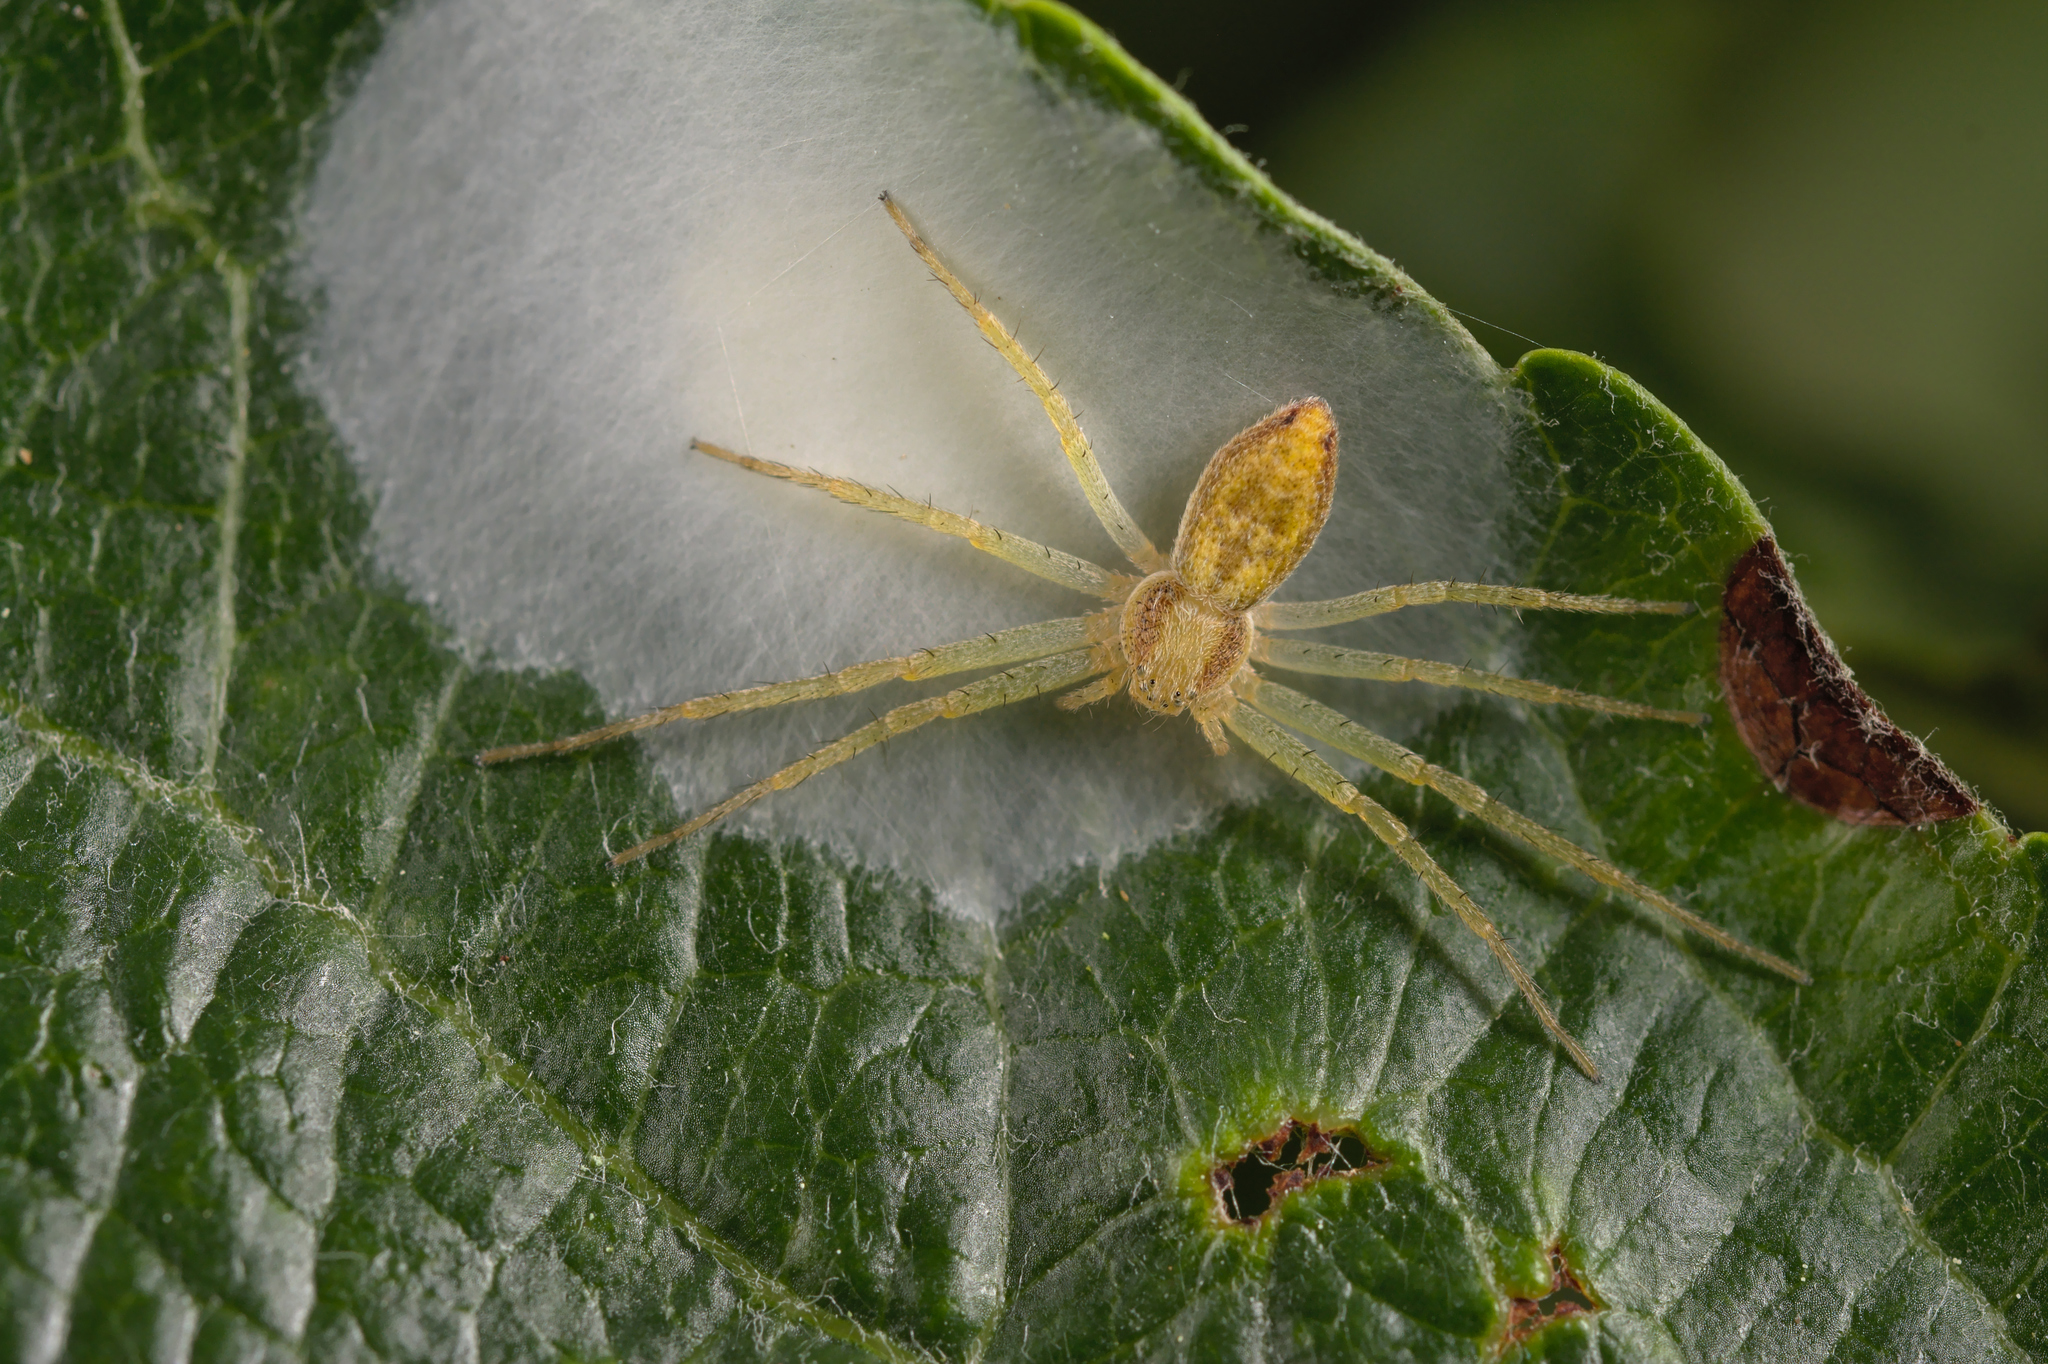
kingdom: Animalia
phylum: Arthropoda
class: Arachnida
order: Araneae
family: Philodromidae
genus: Philodromus
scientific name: Philodromus
